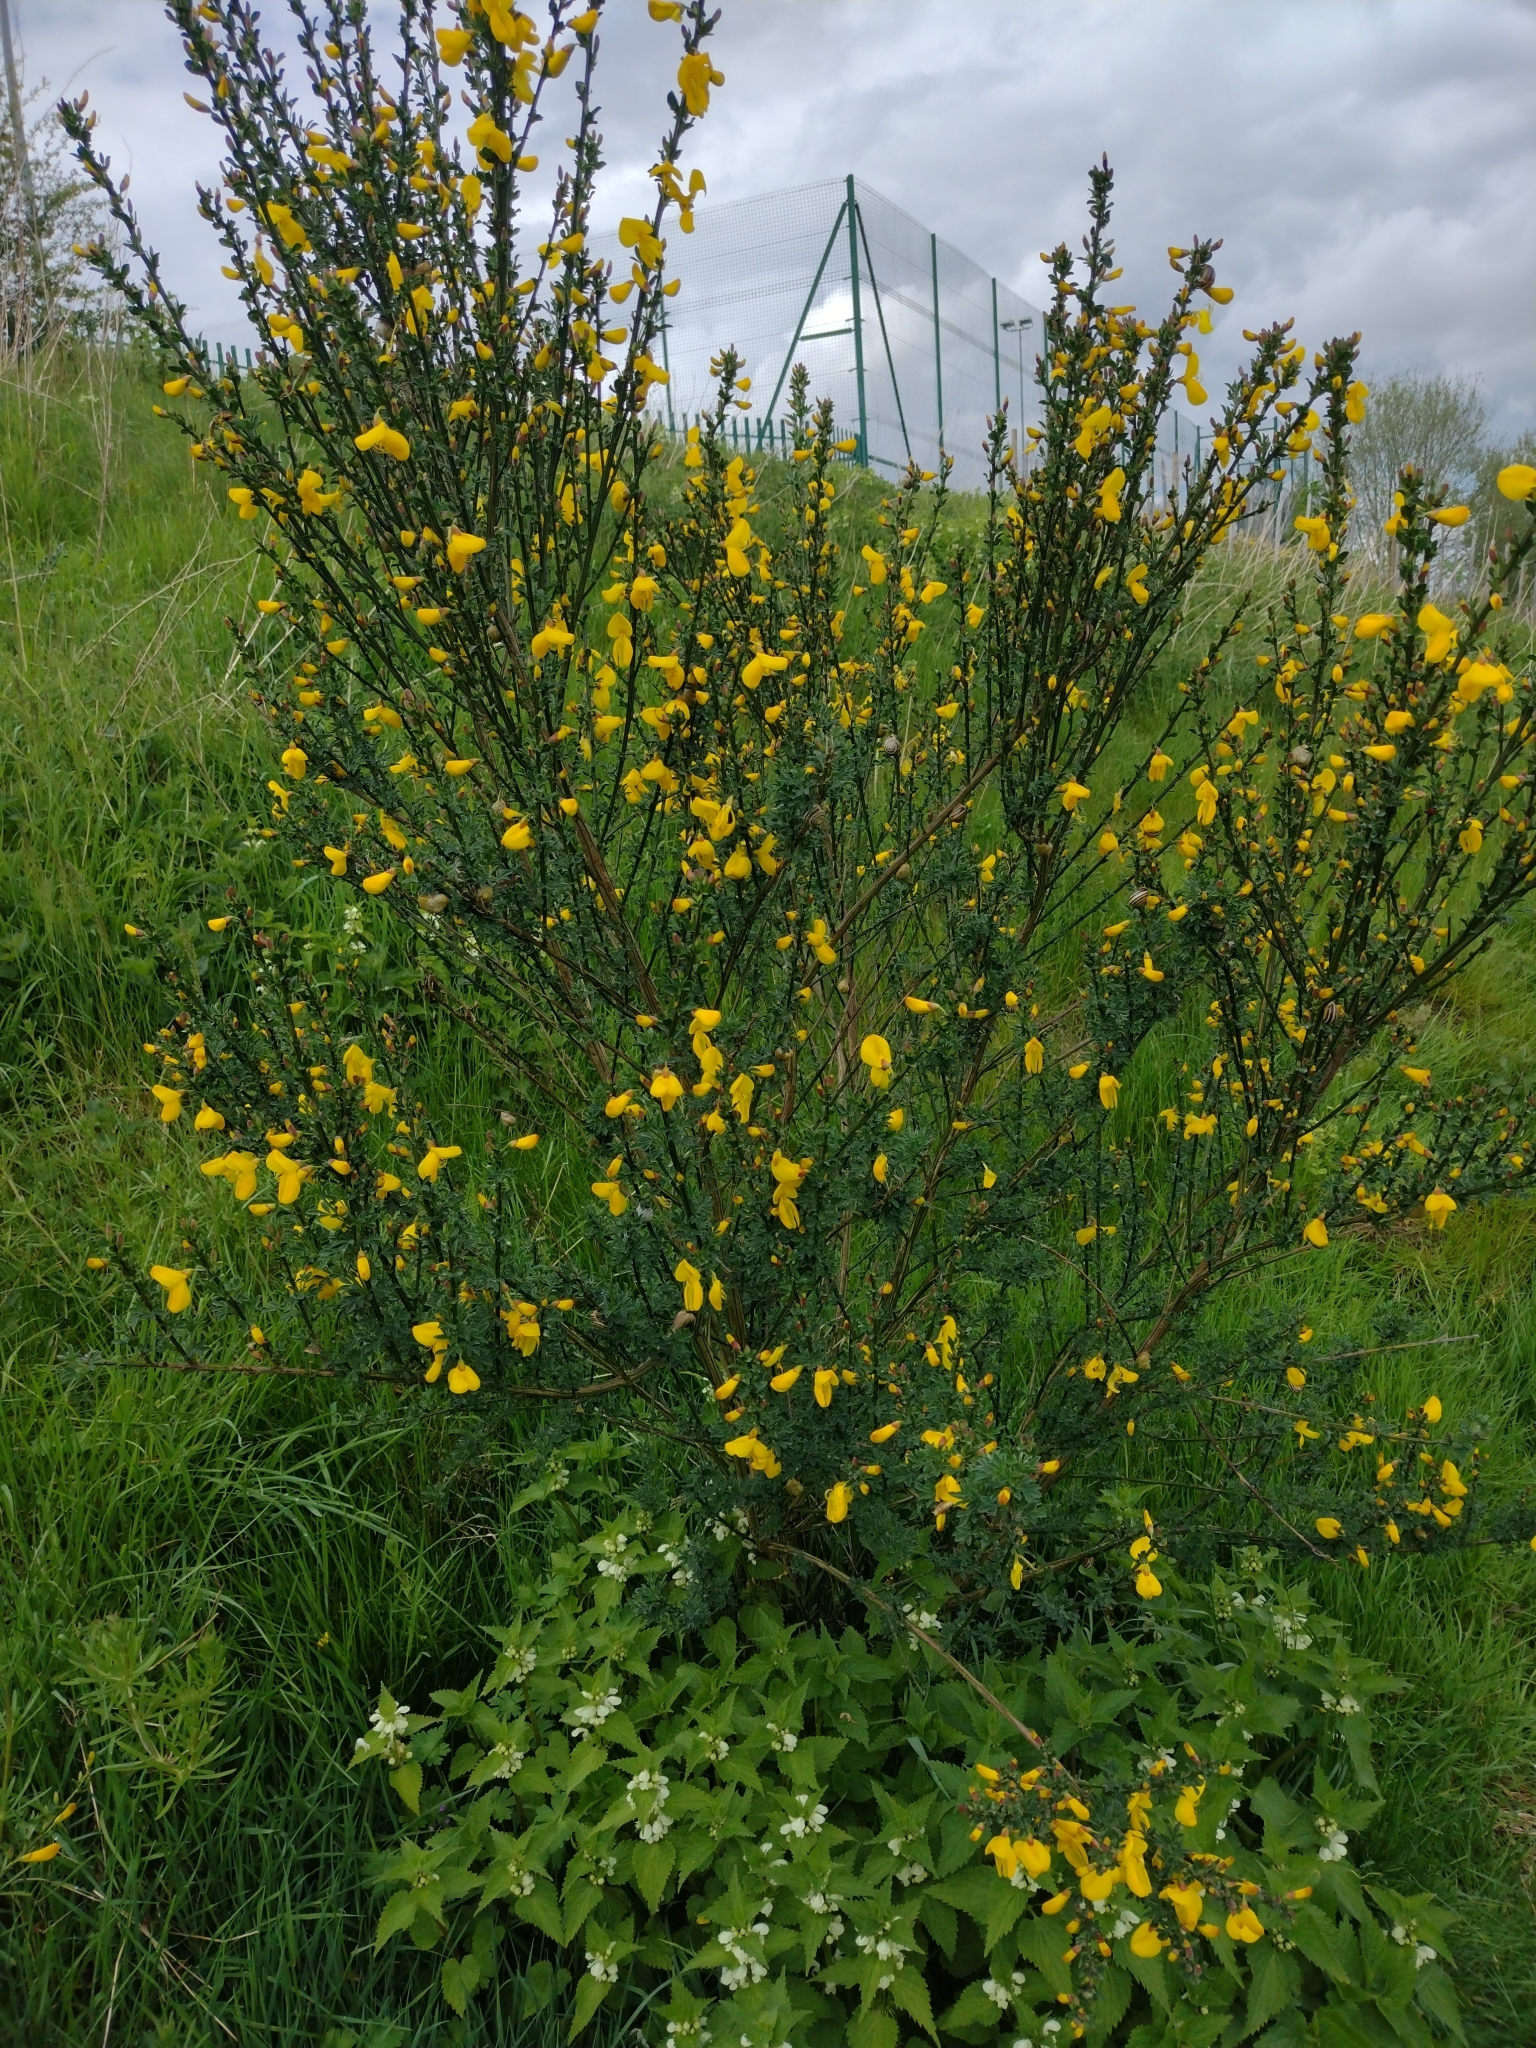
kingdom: Plantae
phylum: Tracheophyta
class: Magnoliopsida
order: Fabales
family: Fabaceae
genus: Cytisus
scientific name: Cytisus scoparius
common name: Scotch broom
